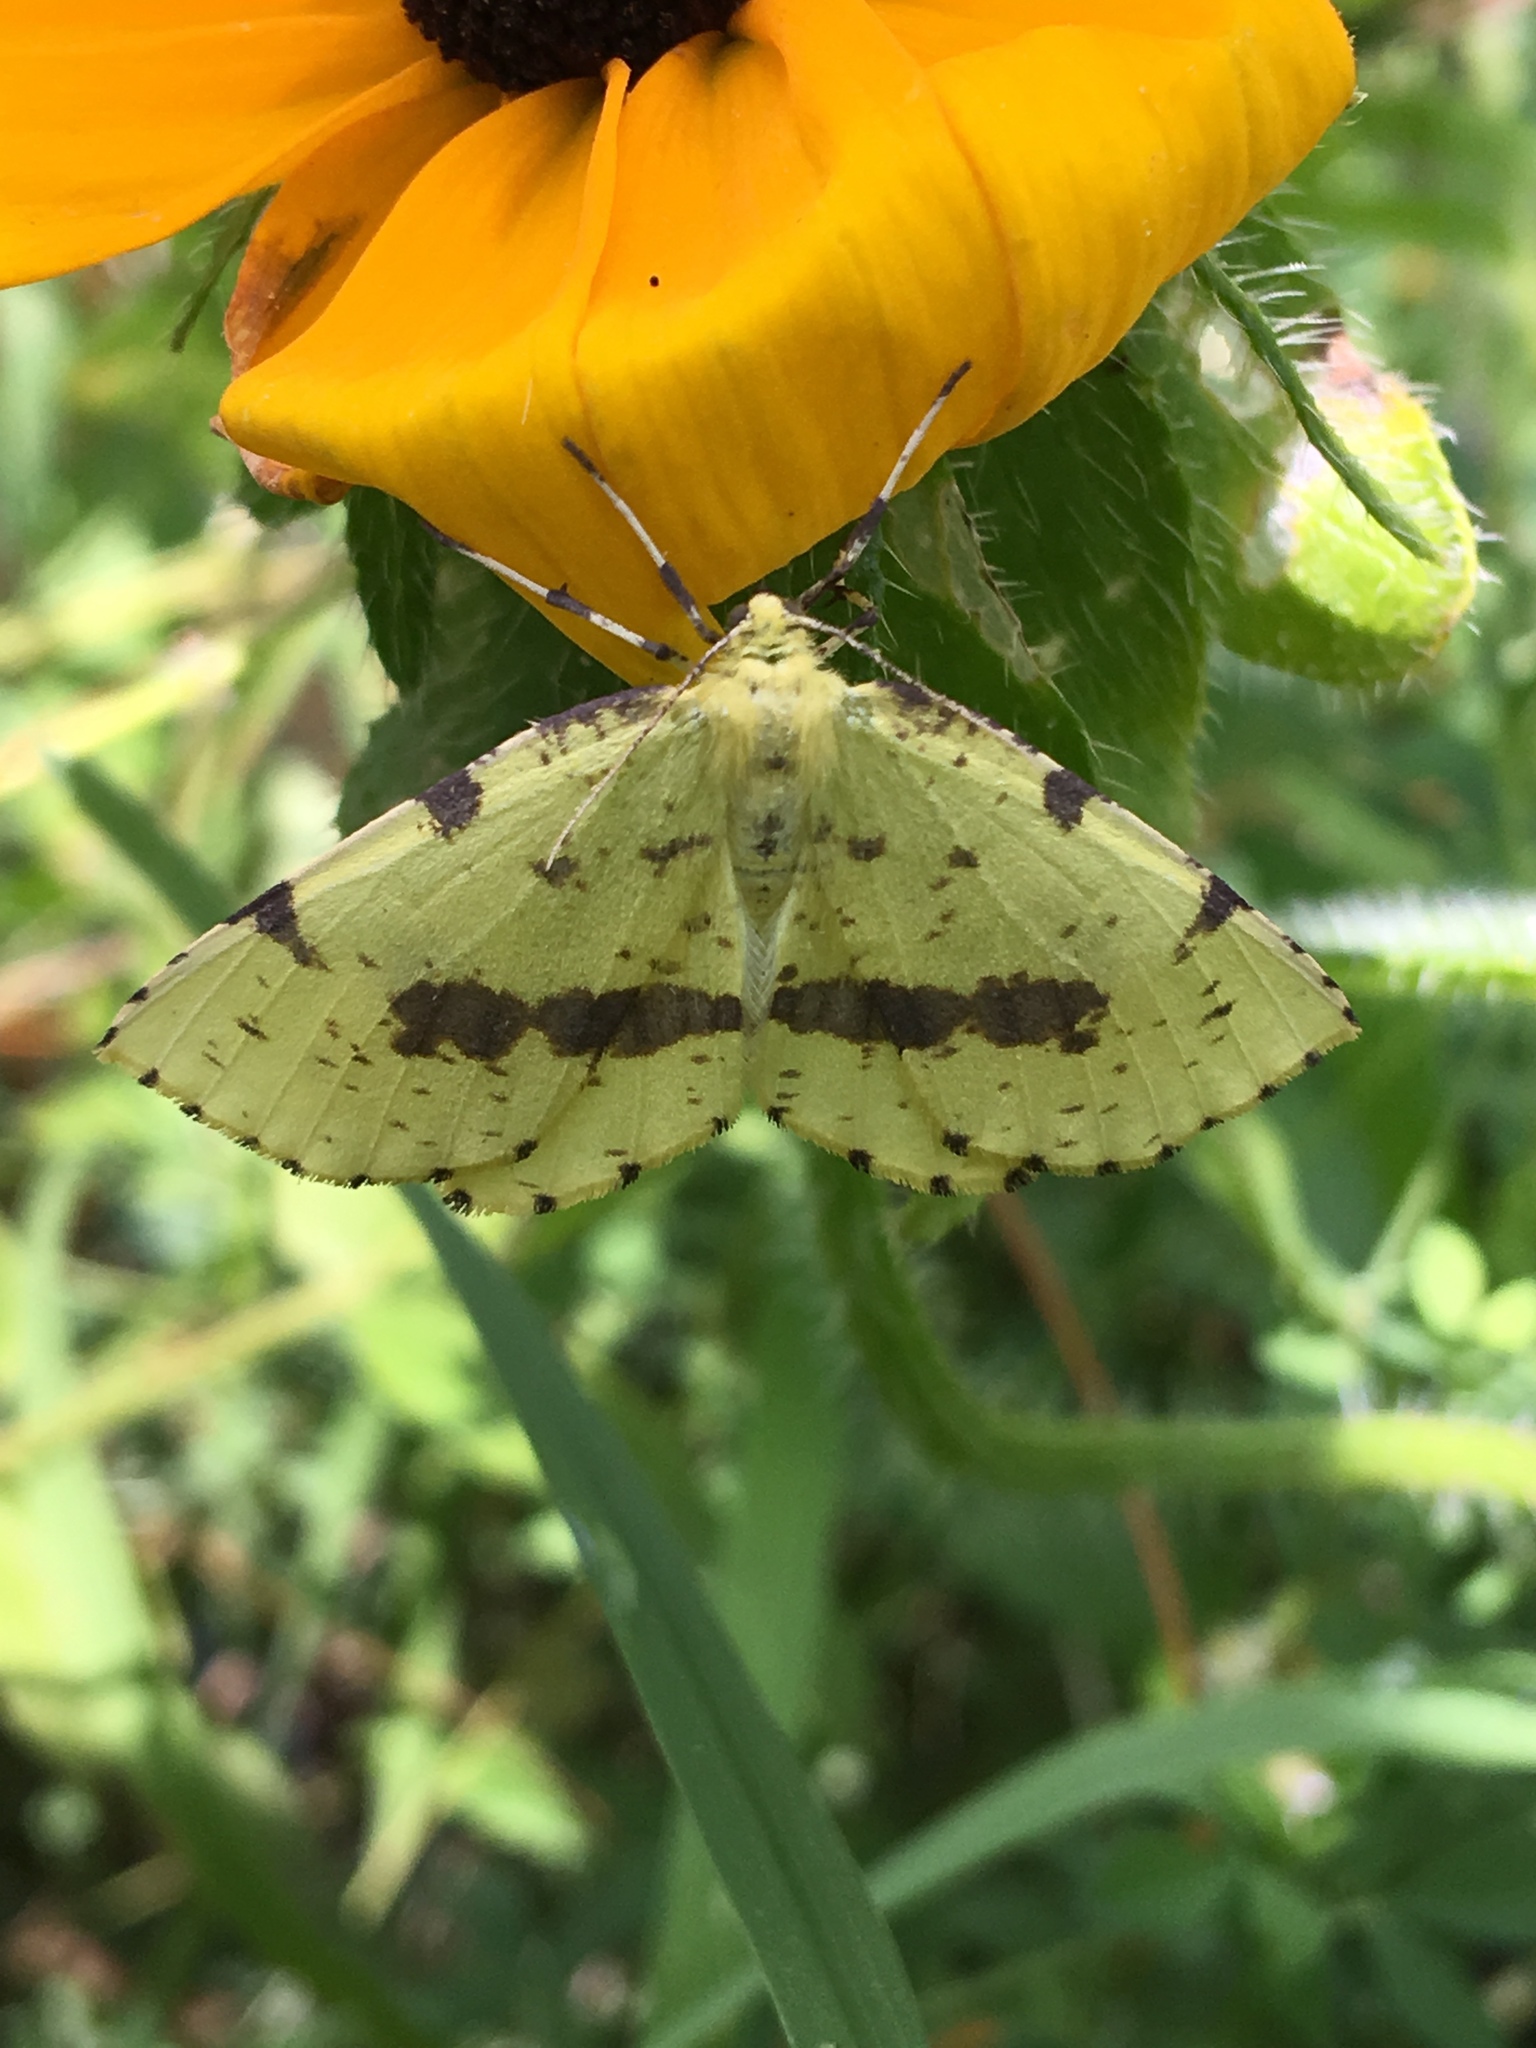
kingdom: Animalia
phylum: Arthropoda
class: Insecta
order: Lepidoptera
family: Geometridae
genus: Xanthotype
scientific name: Xanthotype
